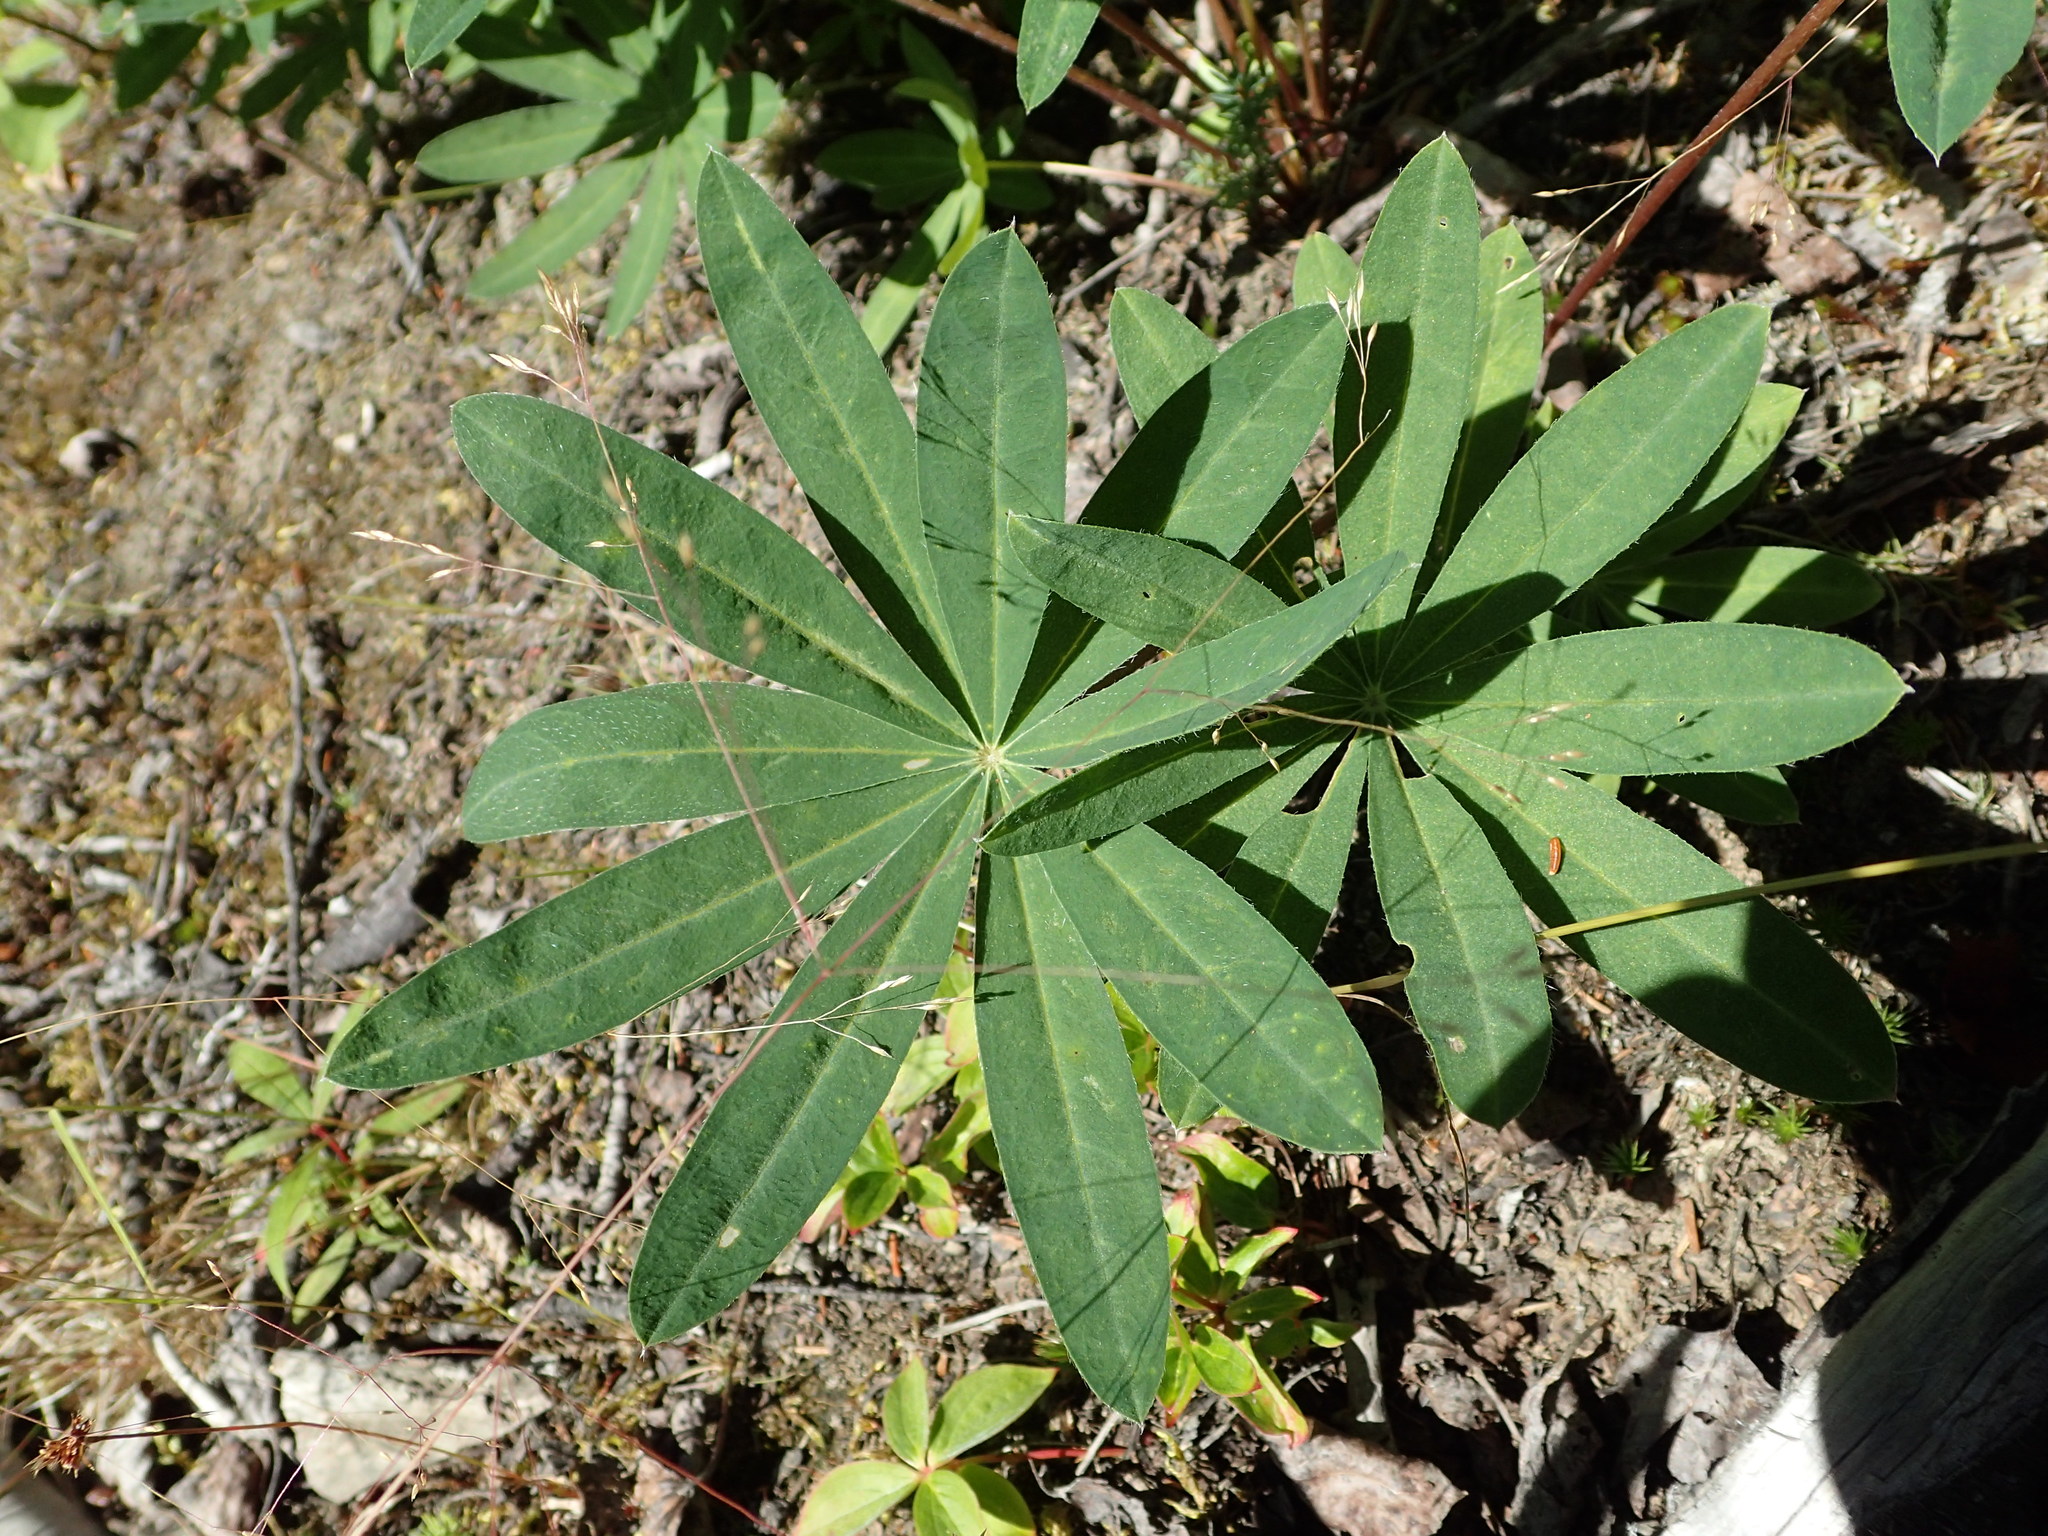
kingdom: Plantae
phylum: Tracheophyta
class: Magnoliopsida
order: Fabales
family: Fabaceae
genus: Lupinus
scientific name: Lupinus polyphyllus
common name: Garden lupin
